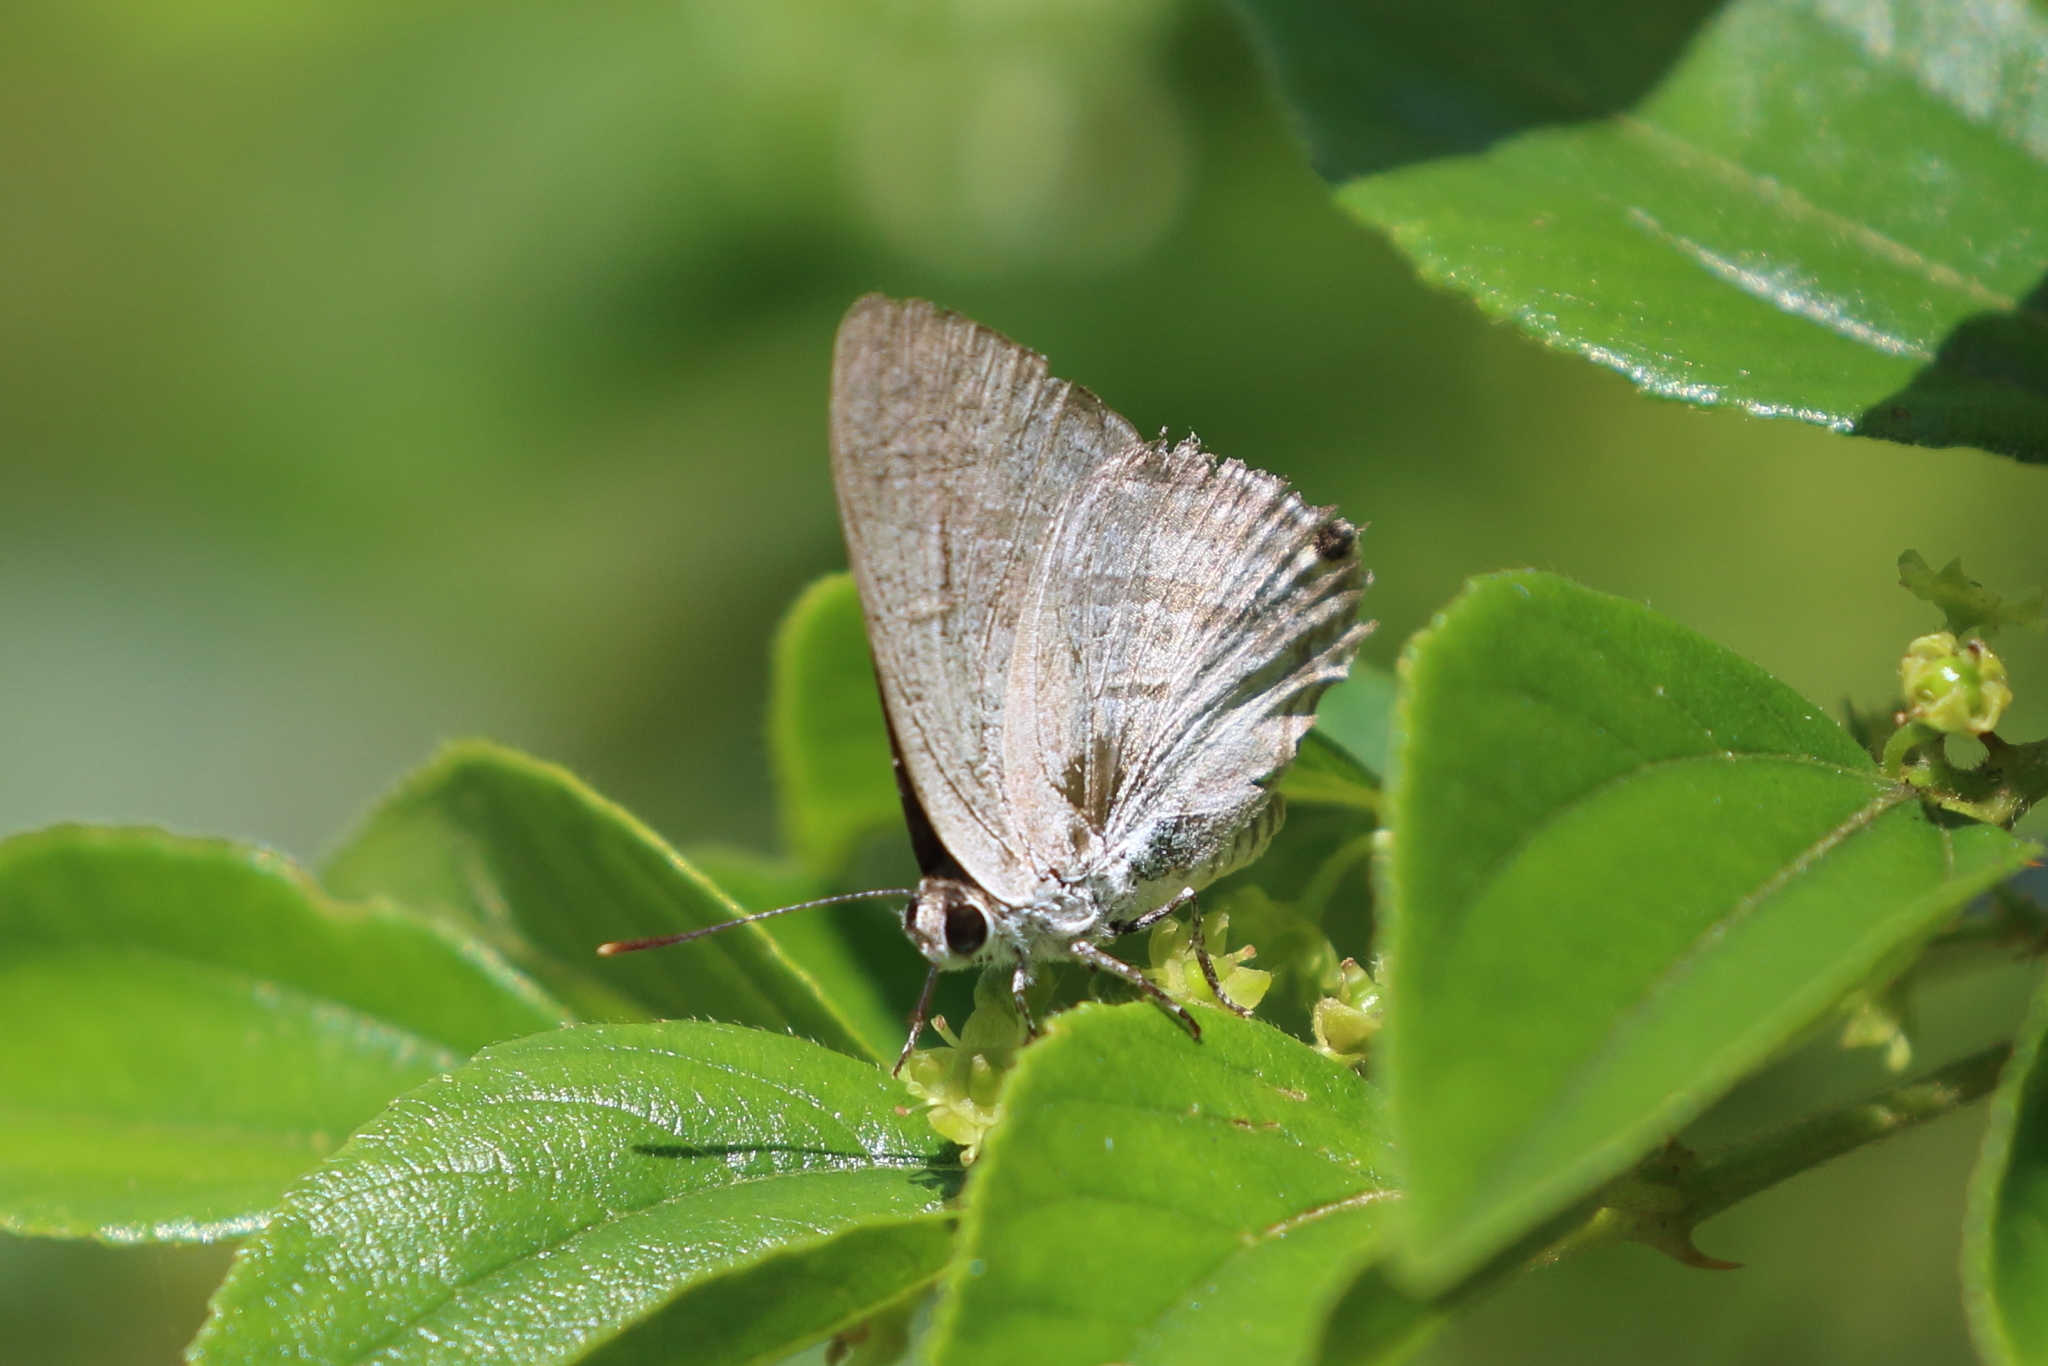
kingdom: Animalia
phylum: Arthropoda
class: Insecta
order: Lepidoptera
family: Lycaenidae
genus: Hypolycaena
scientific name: Hypolycaena phorbas
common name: Black-spotted flash
